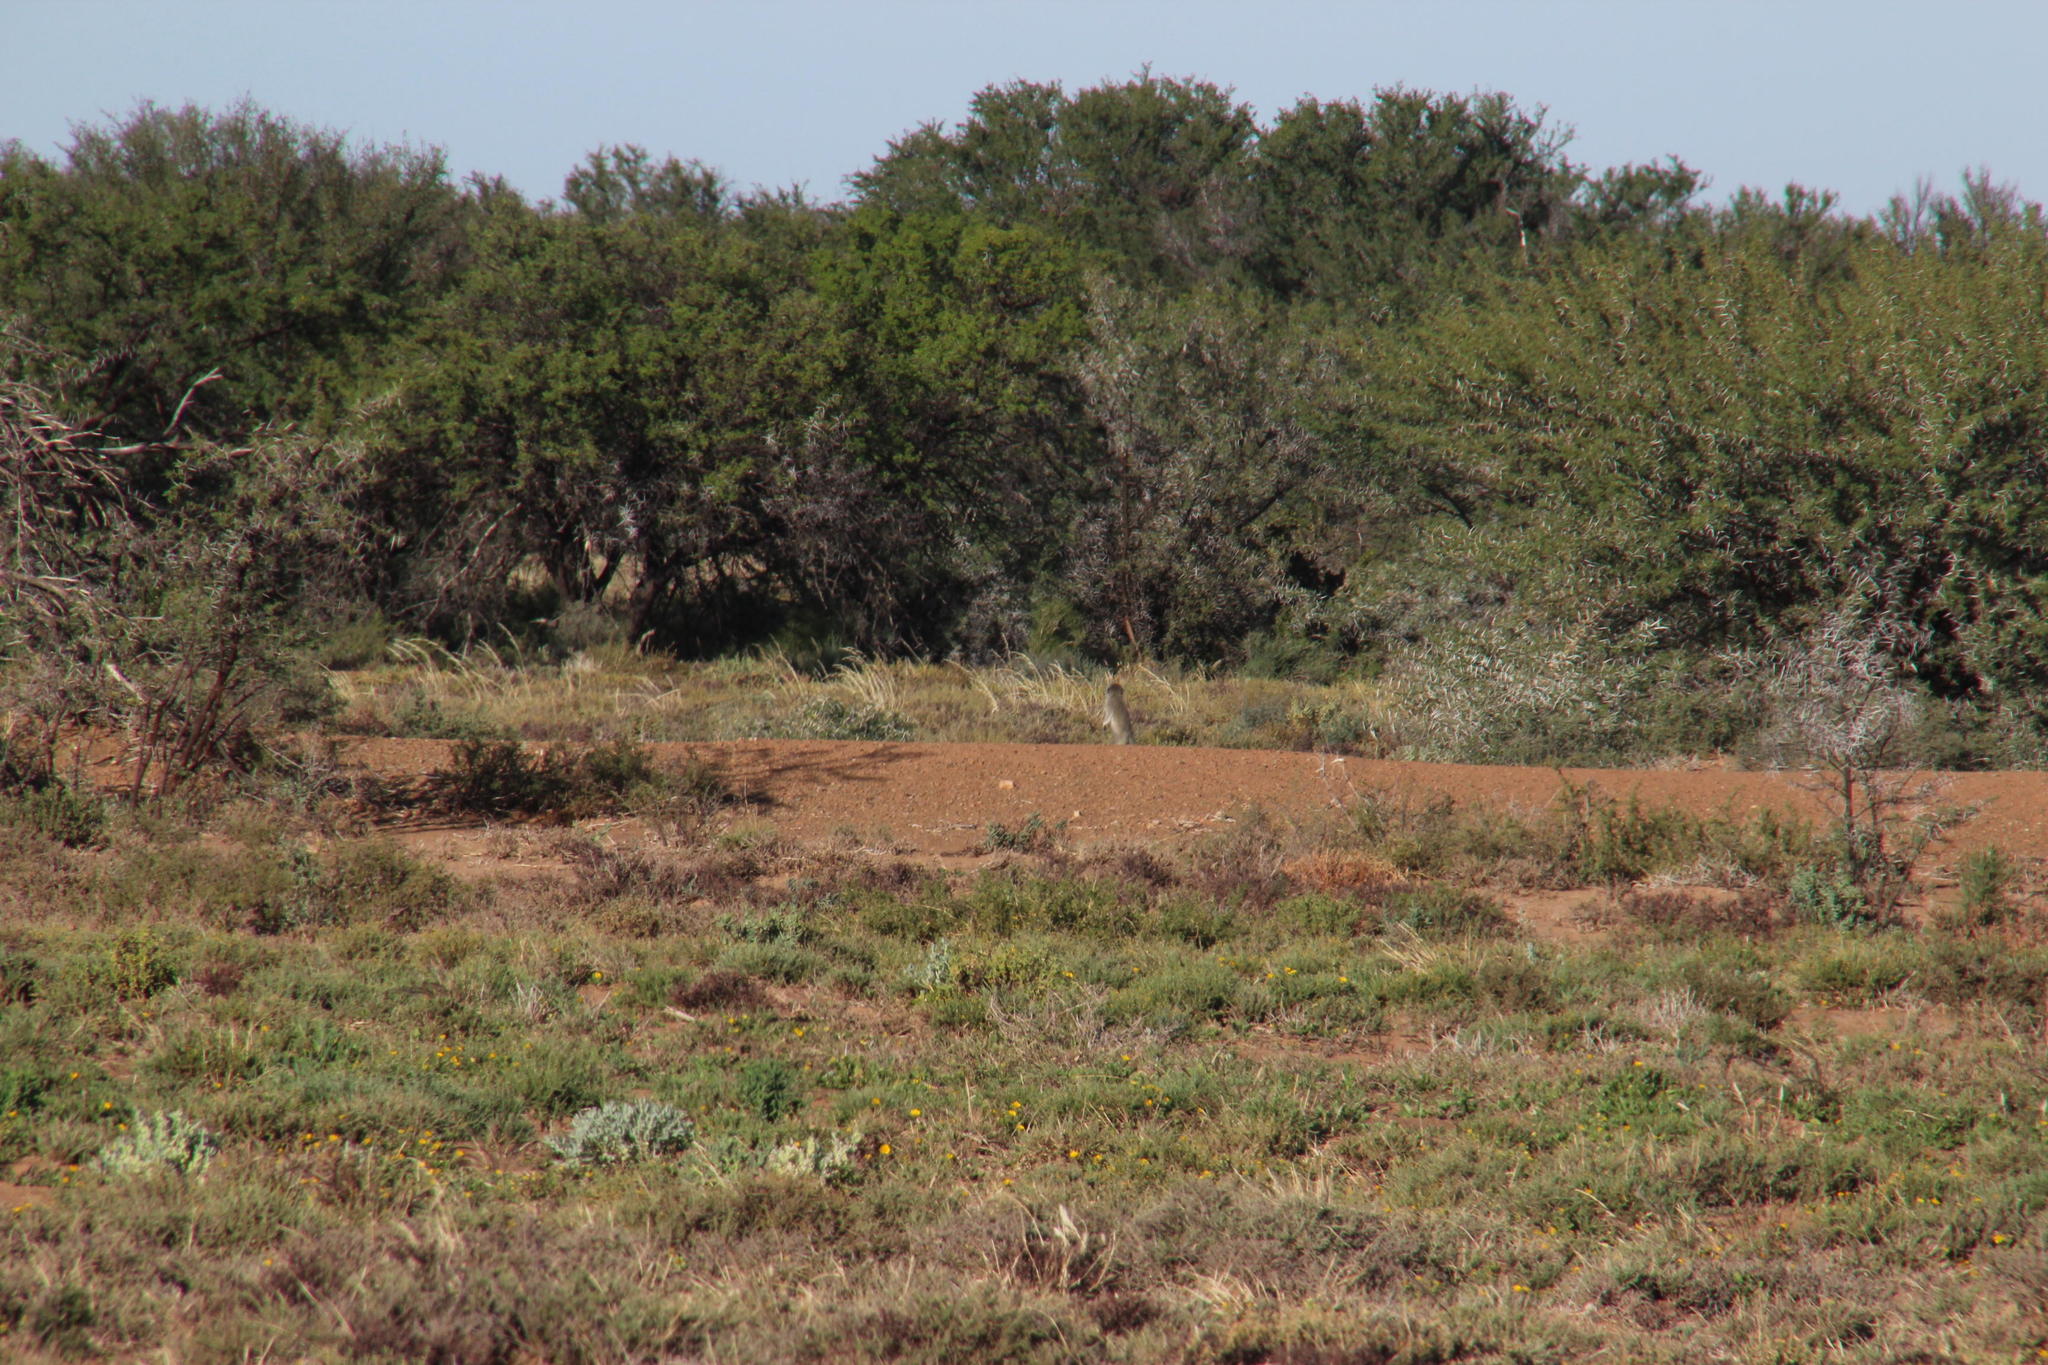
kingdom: Animalia
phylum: Chordata
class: Mammalia
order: Primates
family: Cercopithecidae
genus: Chlorocebus
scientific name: Chlorocebus pygerythrus
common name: Vervet monkey
